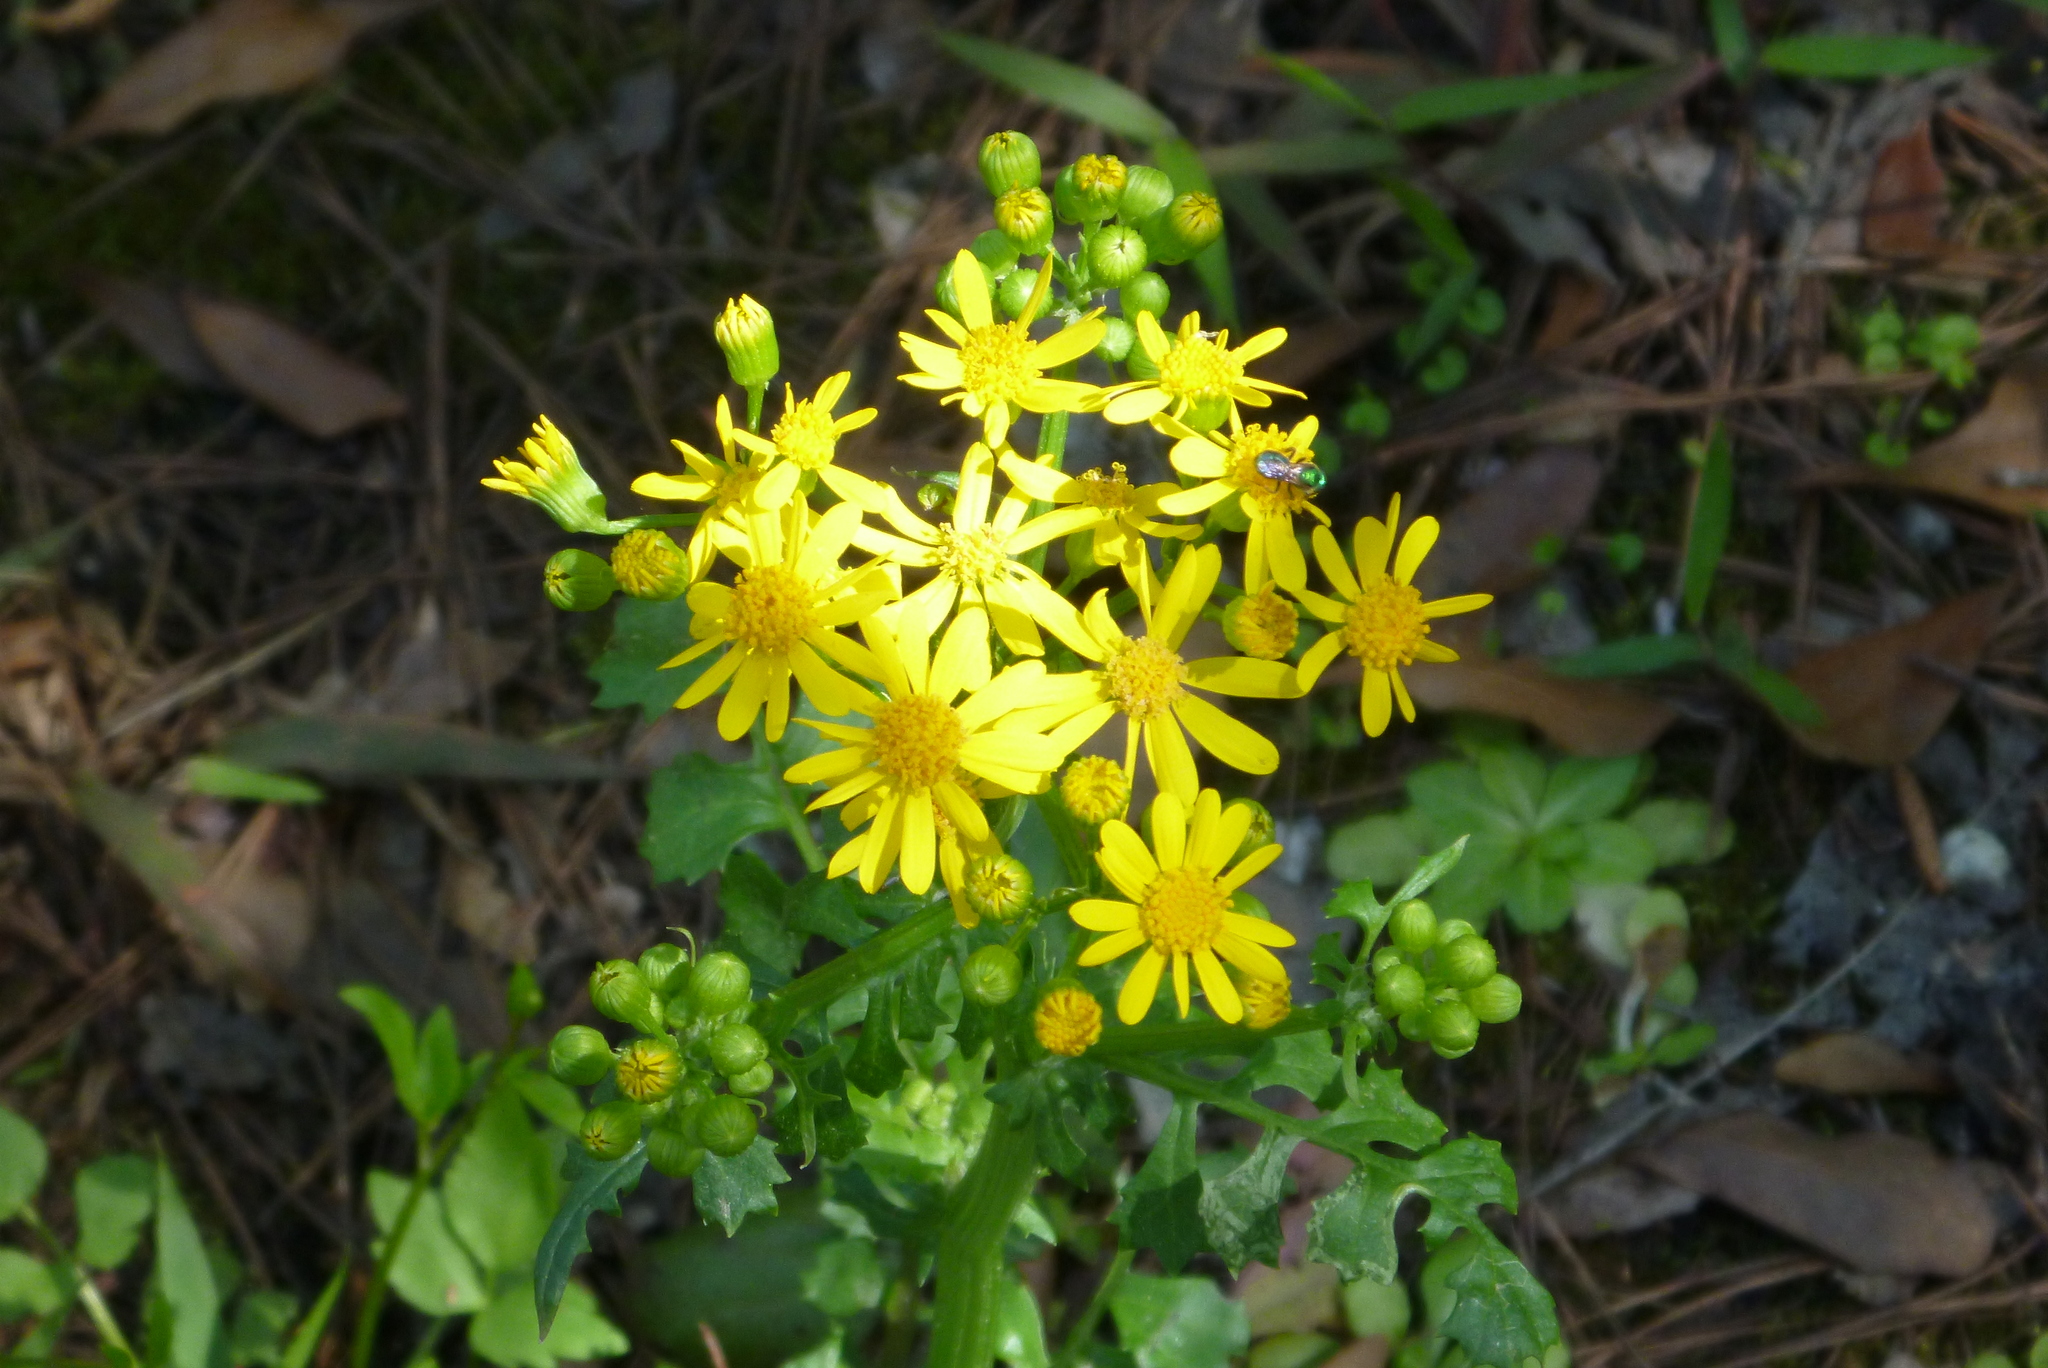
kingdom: Plantae
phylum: Tracheophyta
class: Magnoliopsida
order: Asterales
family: Asteraceae
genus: Packera
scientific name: Packera glabella
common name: Butterweed
